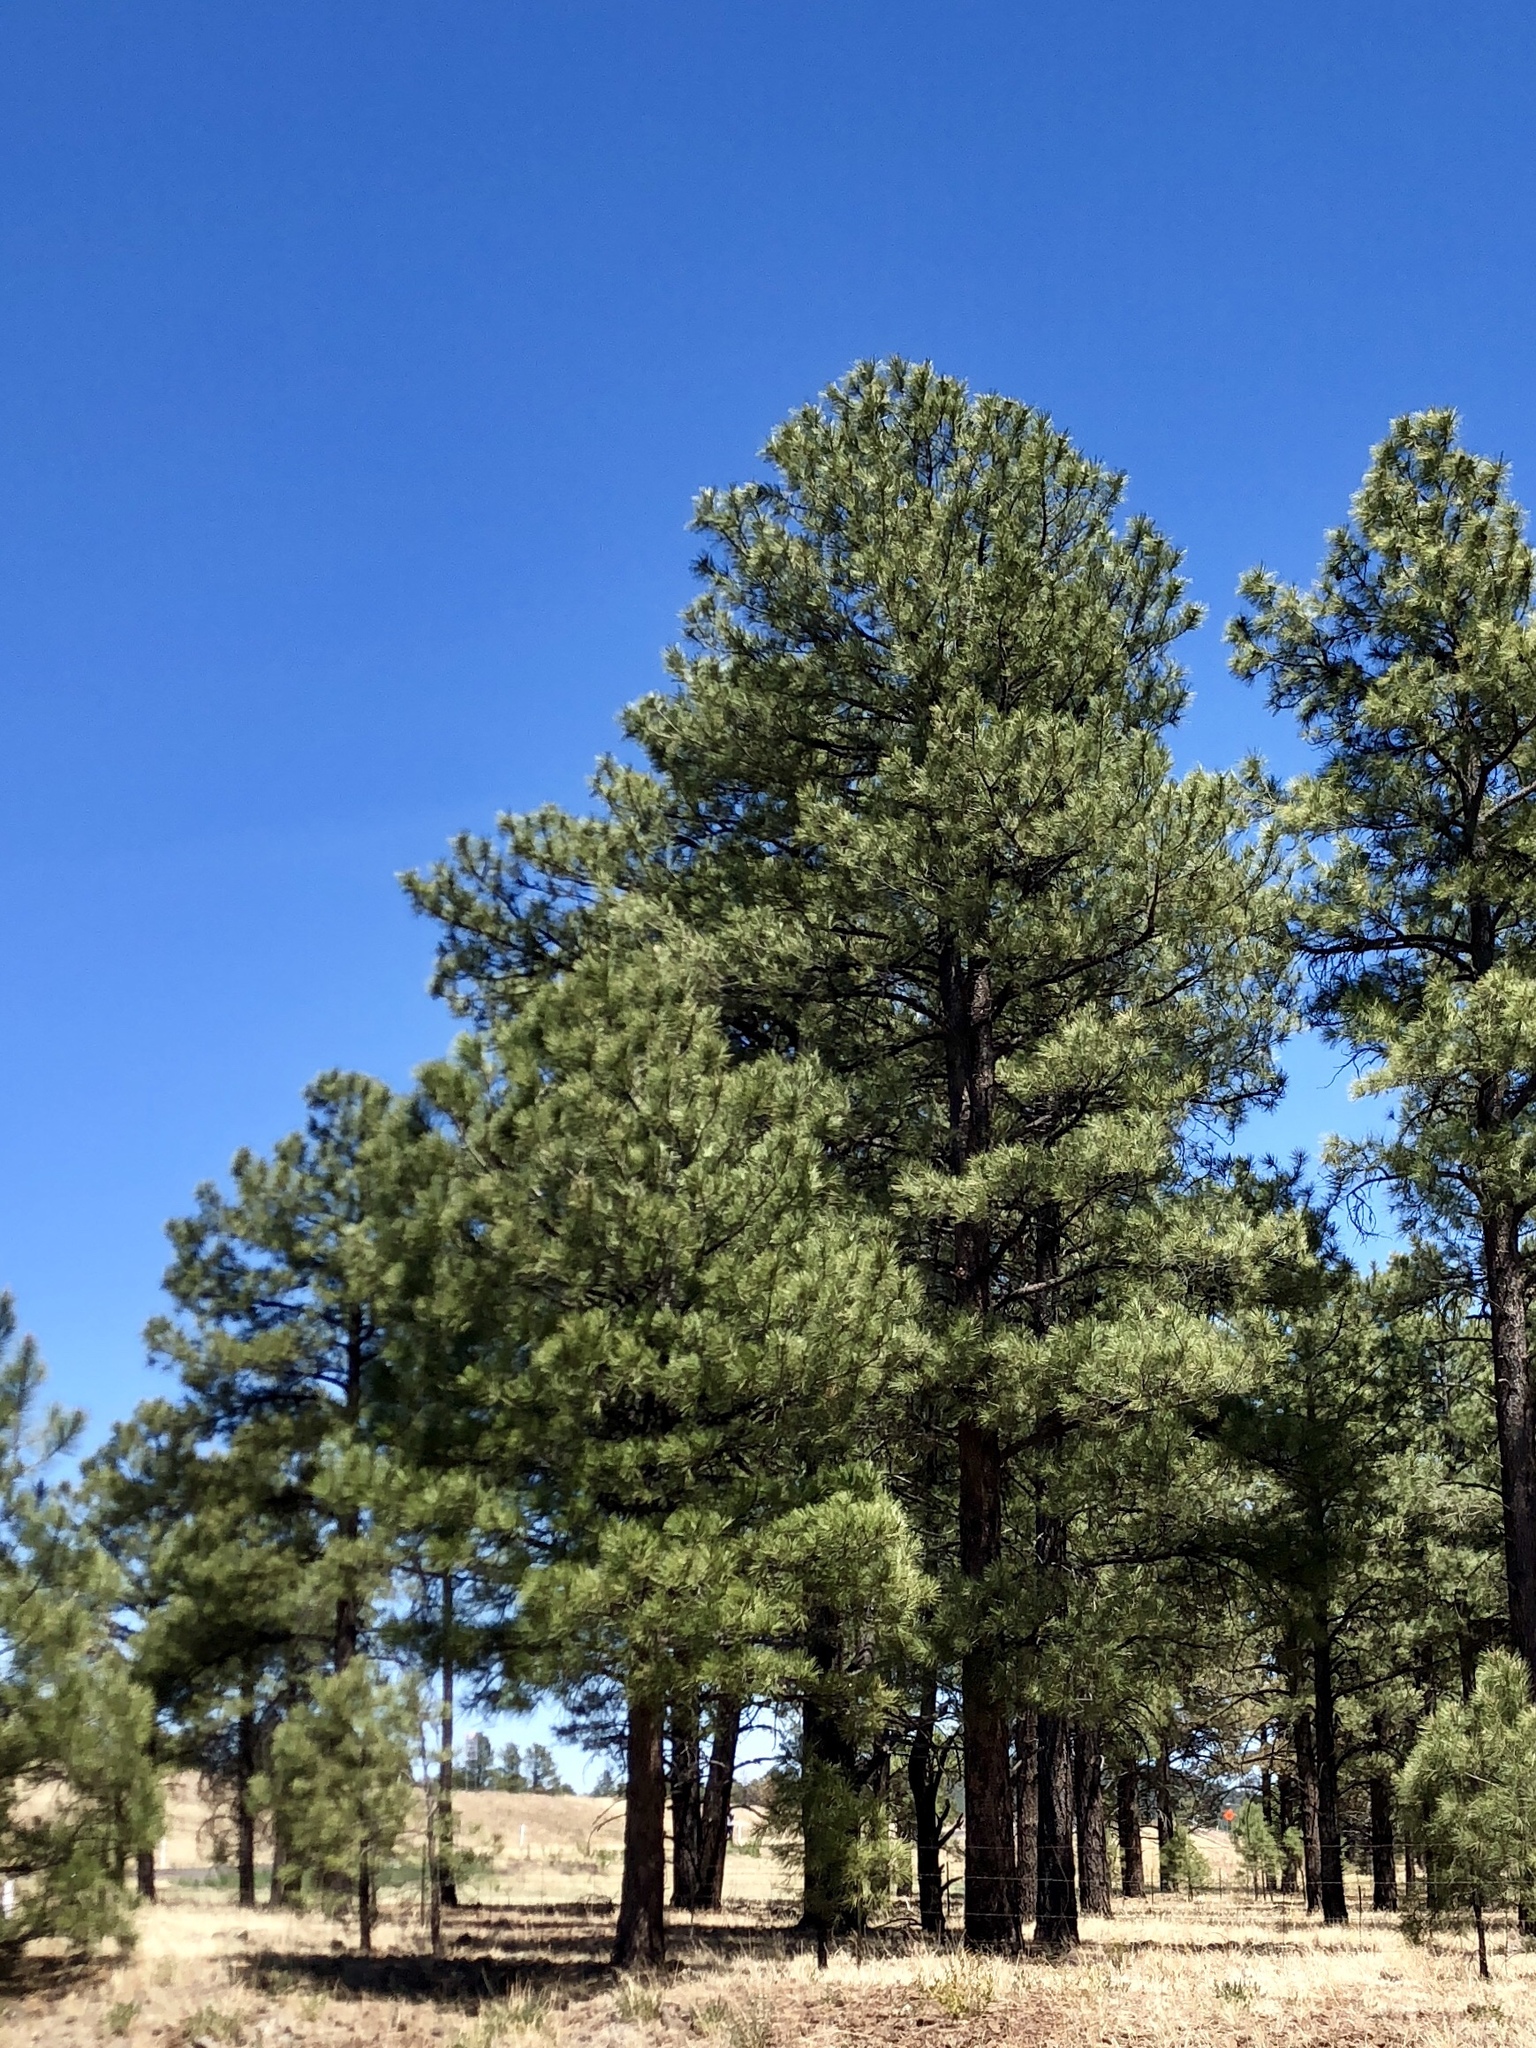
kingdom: Plantae
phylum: Tracheophyta
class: Pinopsida
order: Pinales
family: Pinaceae
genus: Pinus
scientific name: Pinus ponderosa
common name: Western yellow-pine
